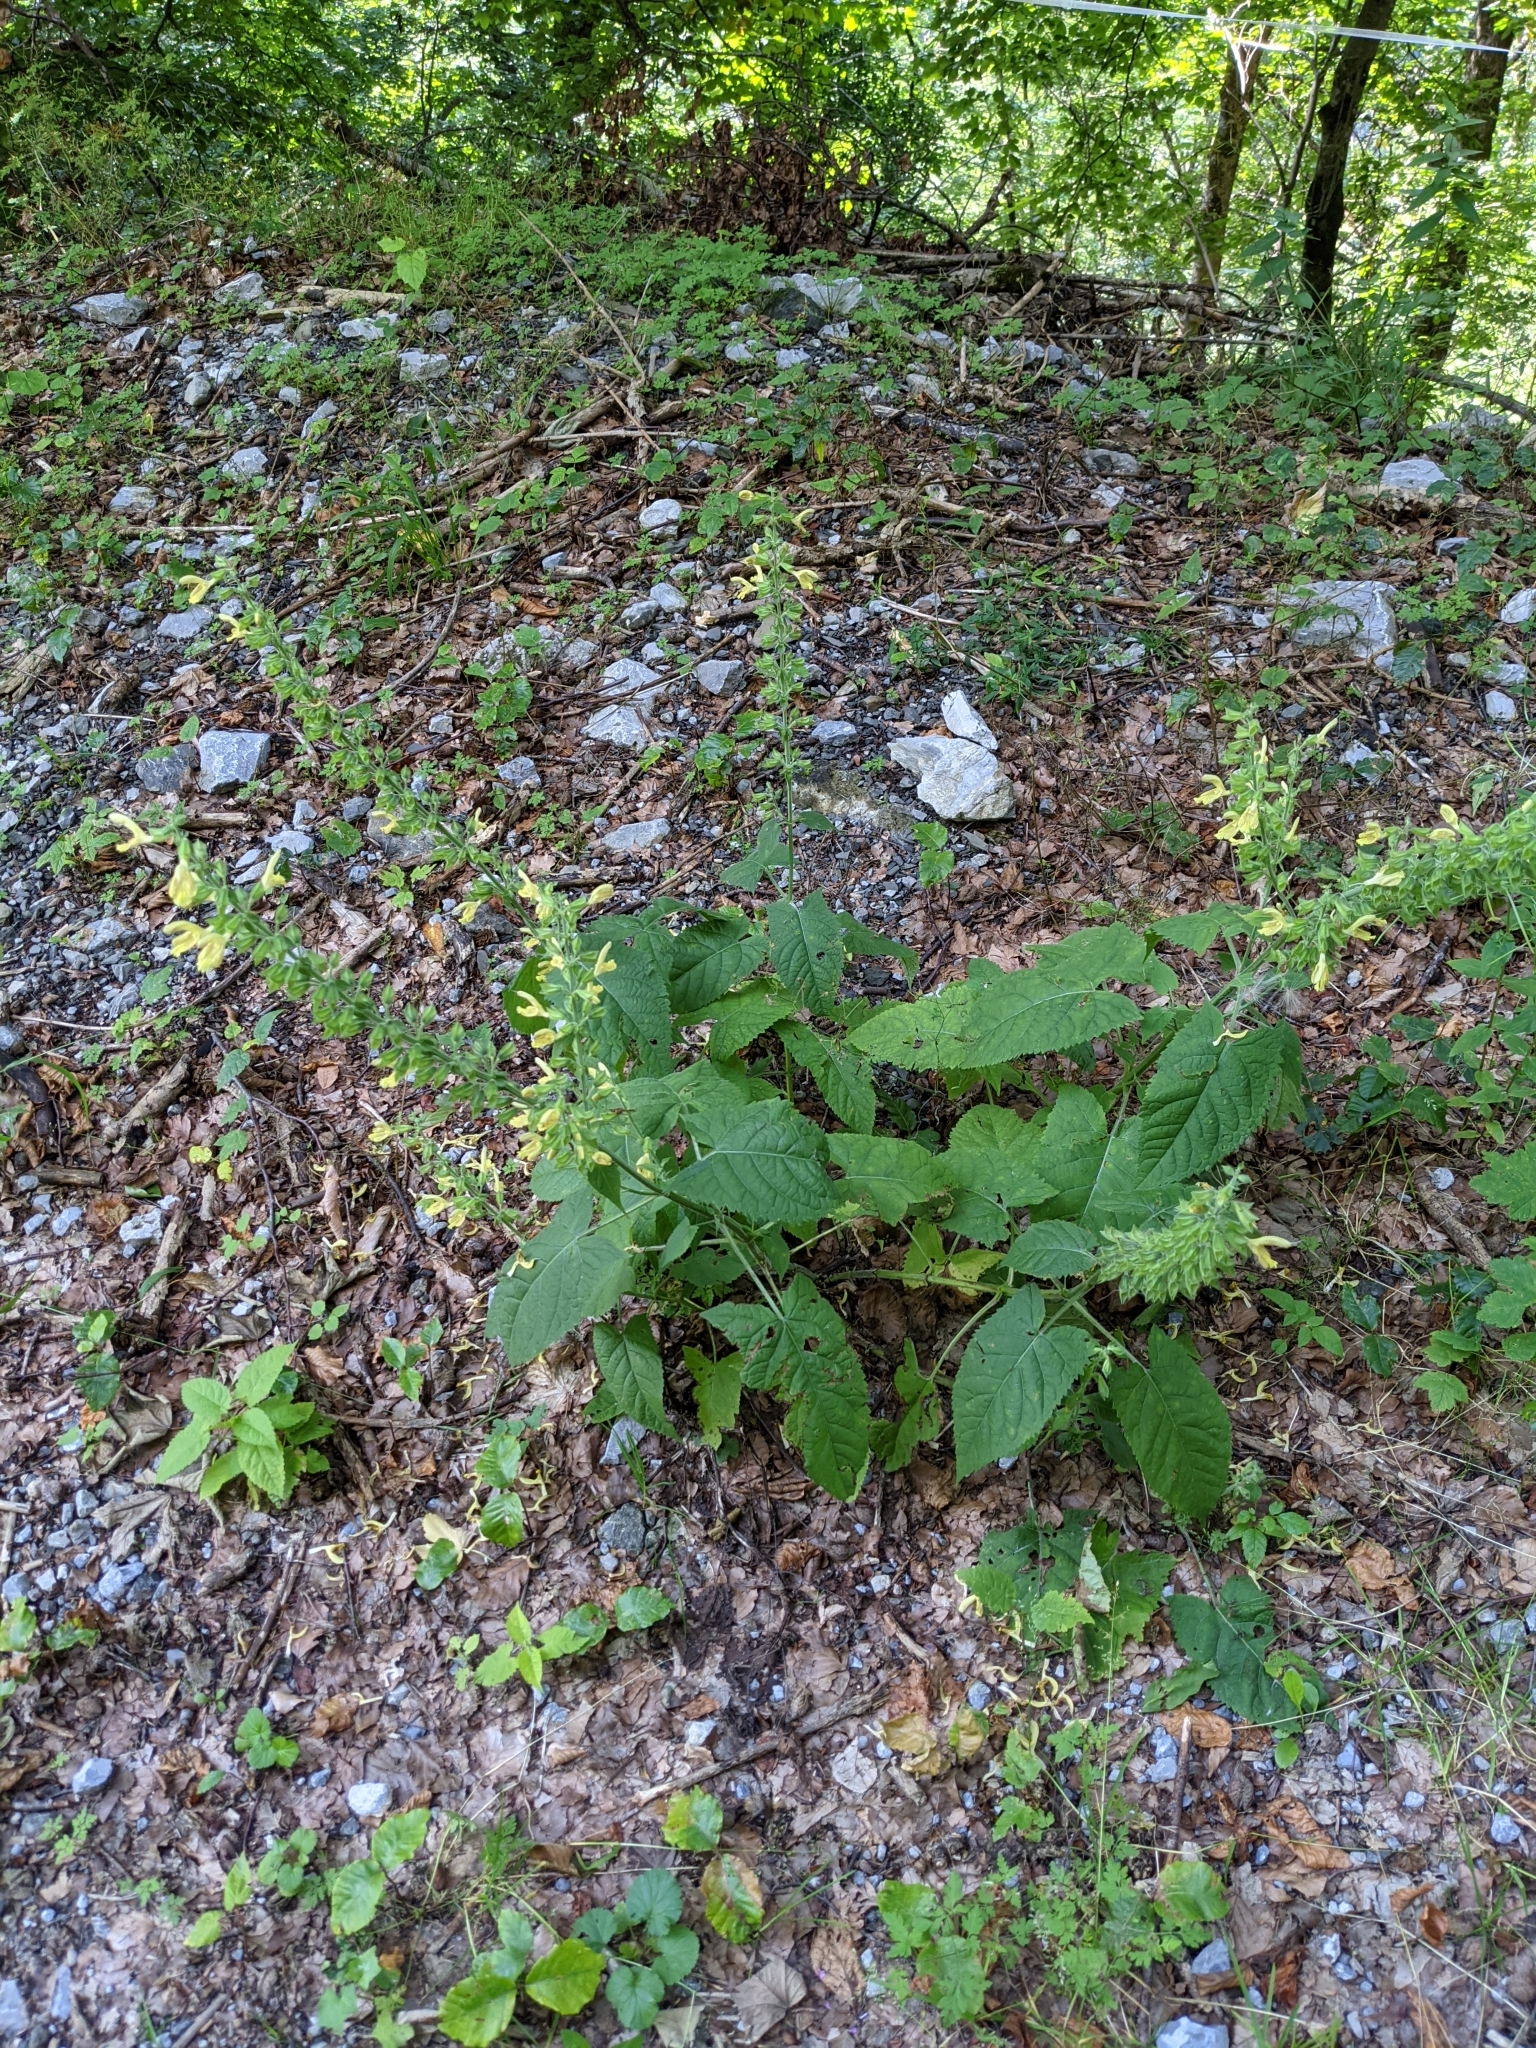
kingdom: Plantae
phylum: Tracheophyta
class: Magnoliopsida
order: Lamiales
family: Lamiaceae
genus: Salvia
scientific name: Salvia glutinosa
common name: Sticky clary
